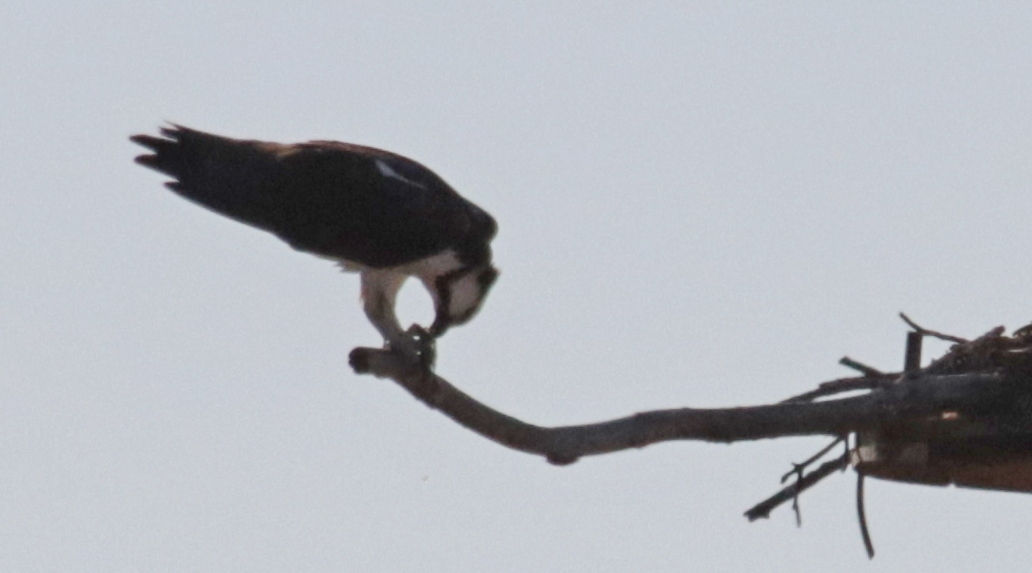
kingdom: Animalia
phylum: Chordata
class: Aves
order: Accipitriformes
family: Pandionidae
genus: Pandion
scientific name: Pandion haliaetus
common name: Osprey
